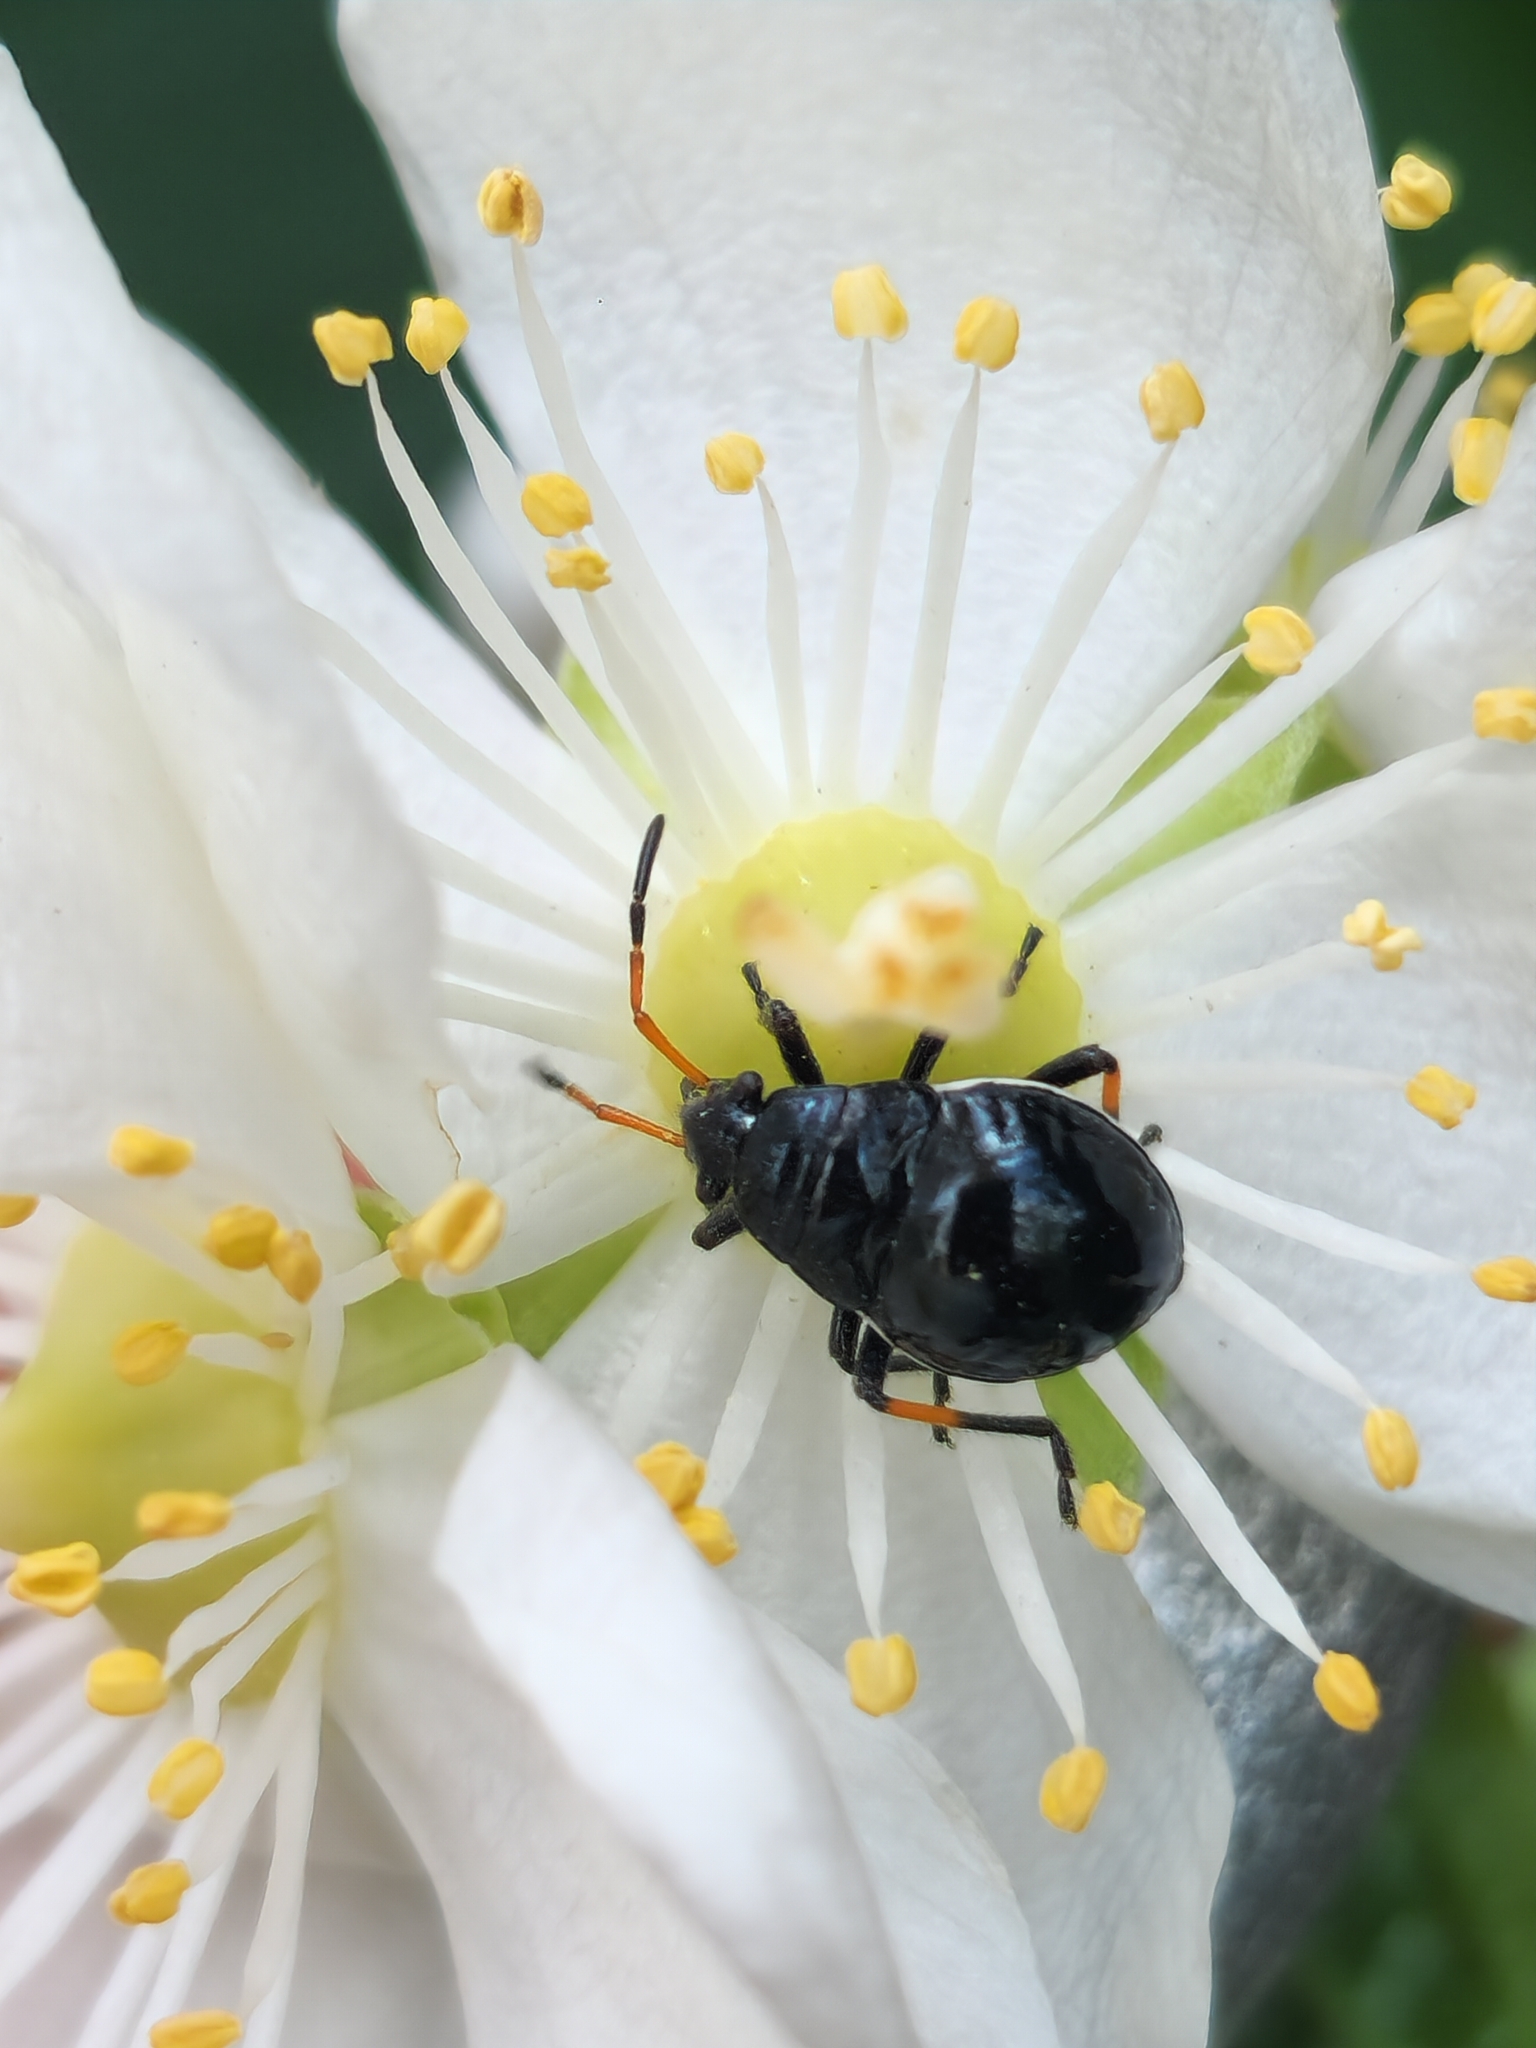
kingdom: Animalia
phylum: Arthropoda
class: Insecta
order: Hemiptera
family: Largidae
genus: Largus
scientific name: Largus fasciatus
